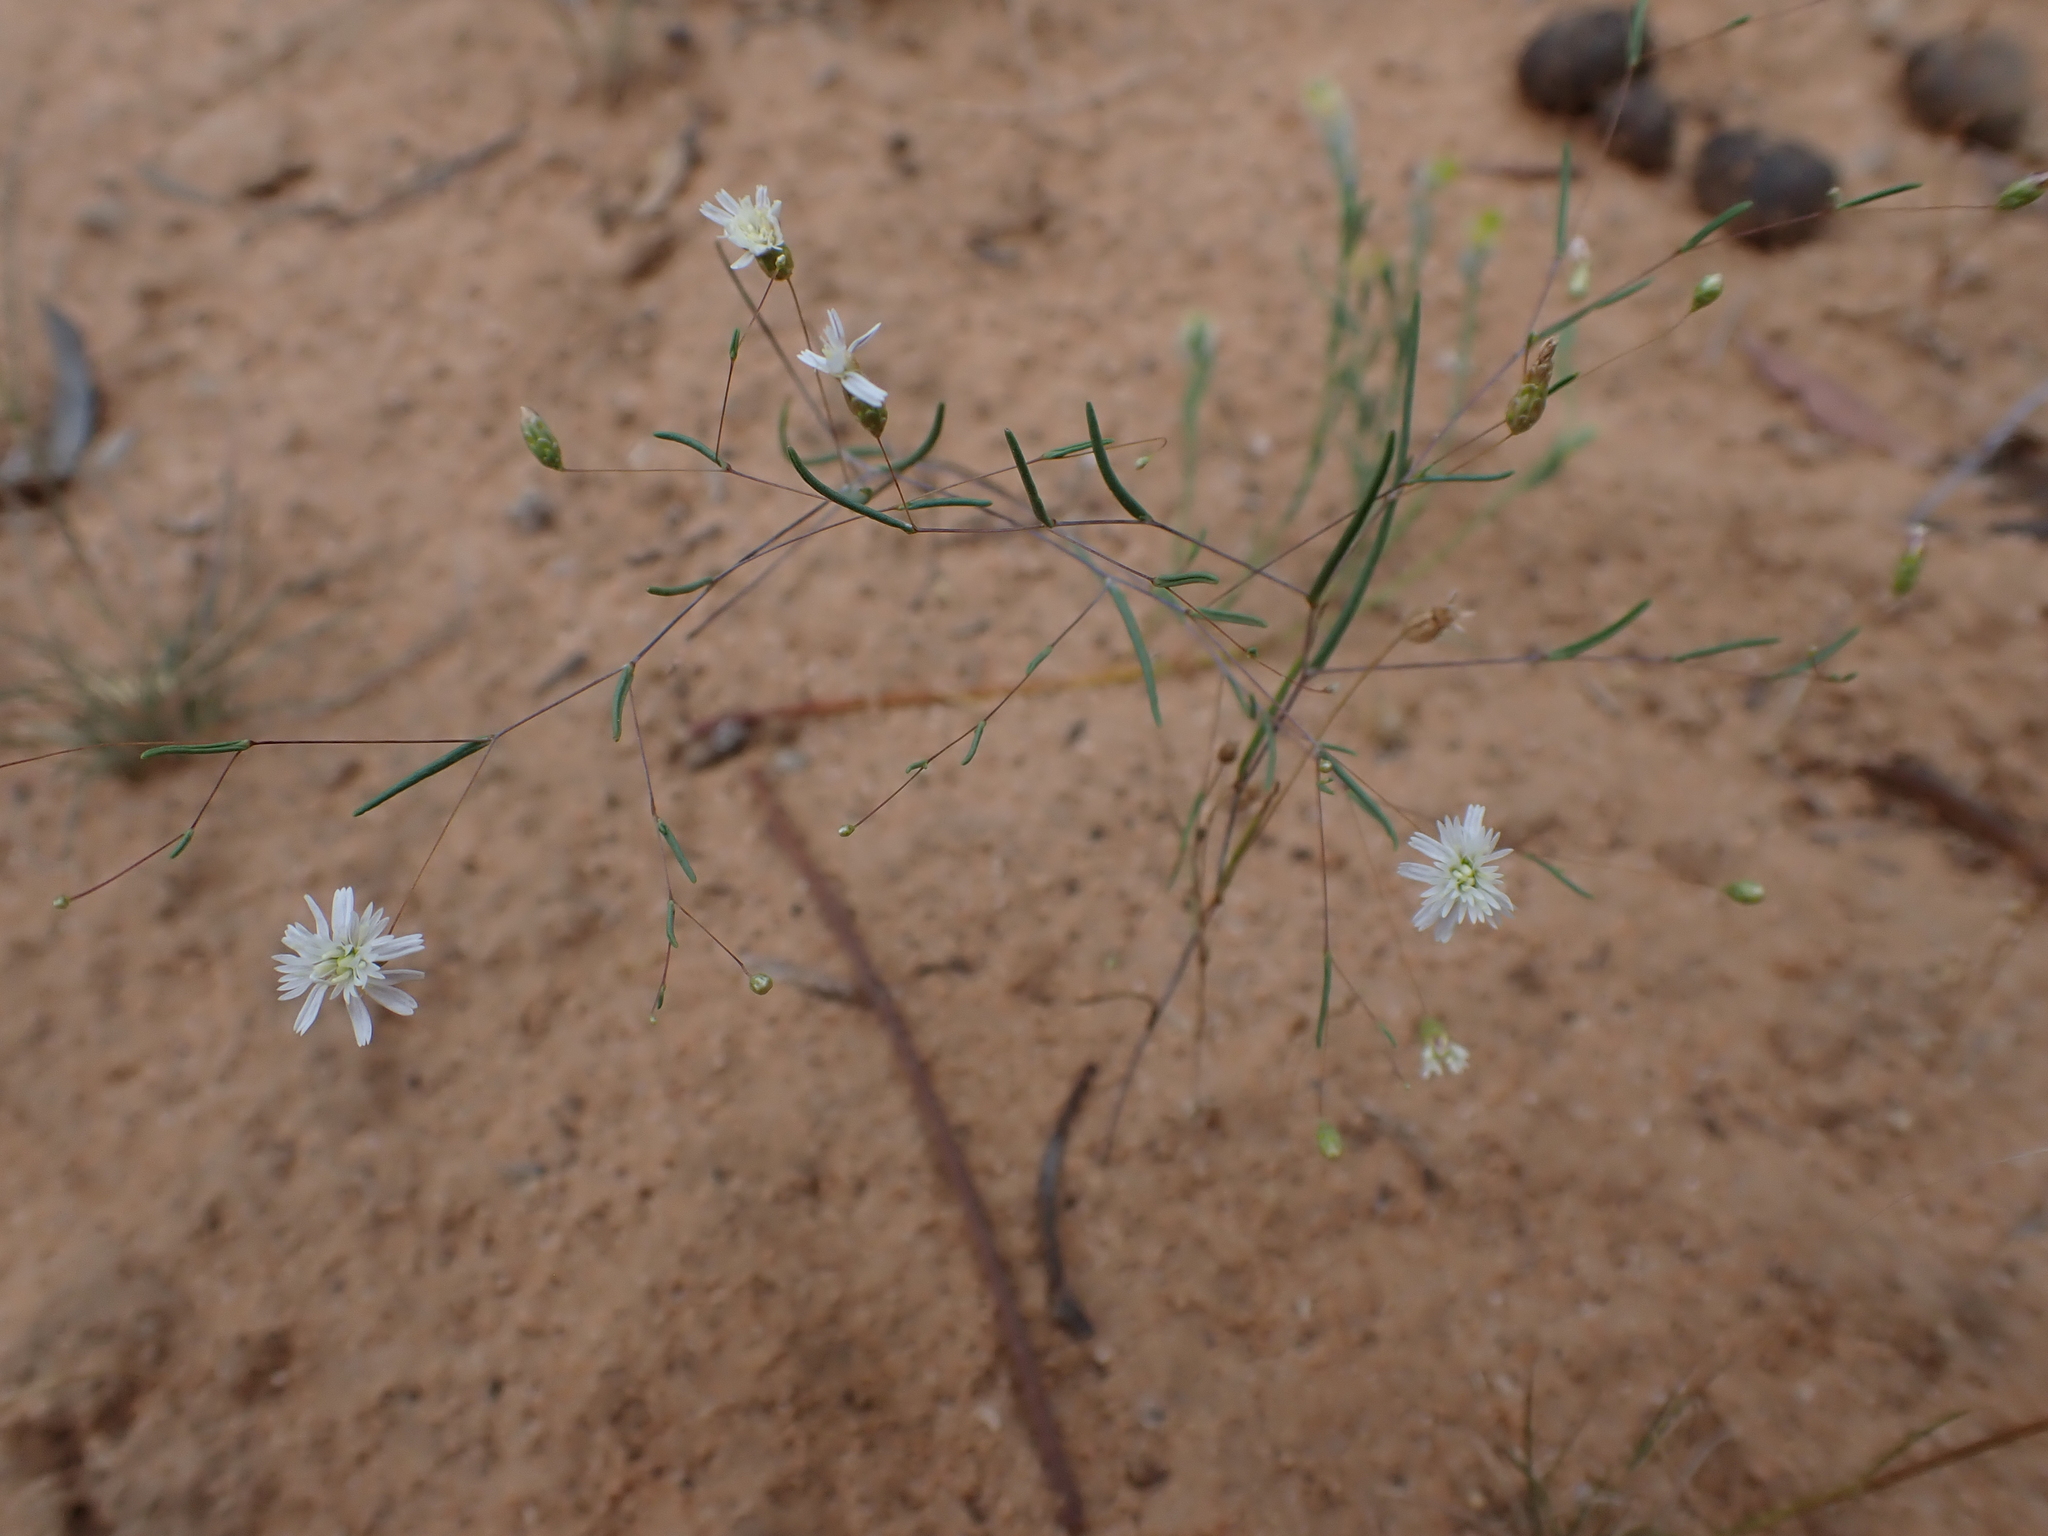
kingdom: Plantae
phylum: Tracheophyta
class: Magnoliopsida
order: Asterales
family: Asteraceae
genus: Siemssenia
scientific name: Siemssenia capillaris
